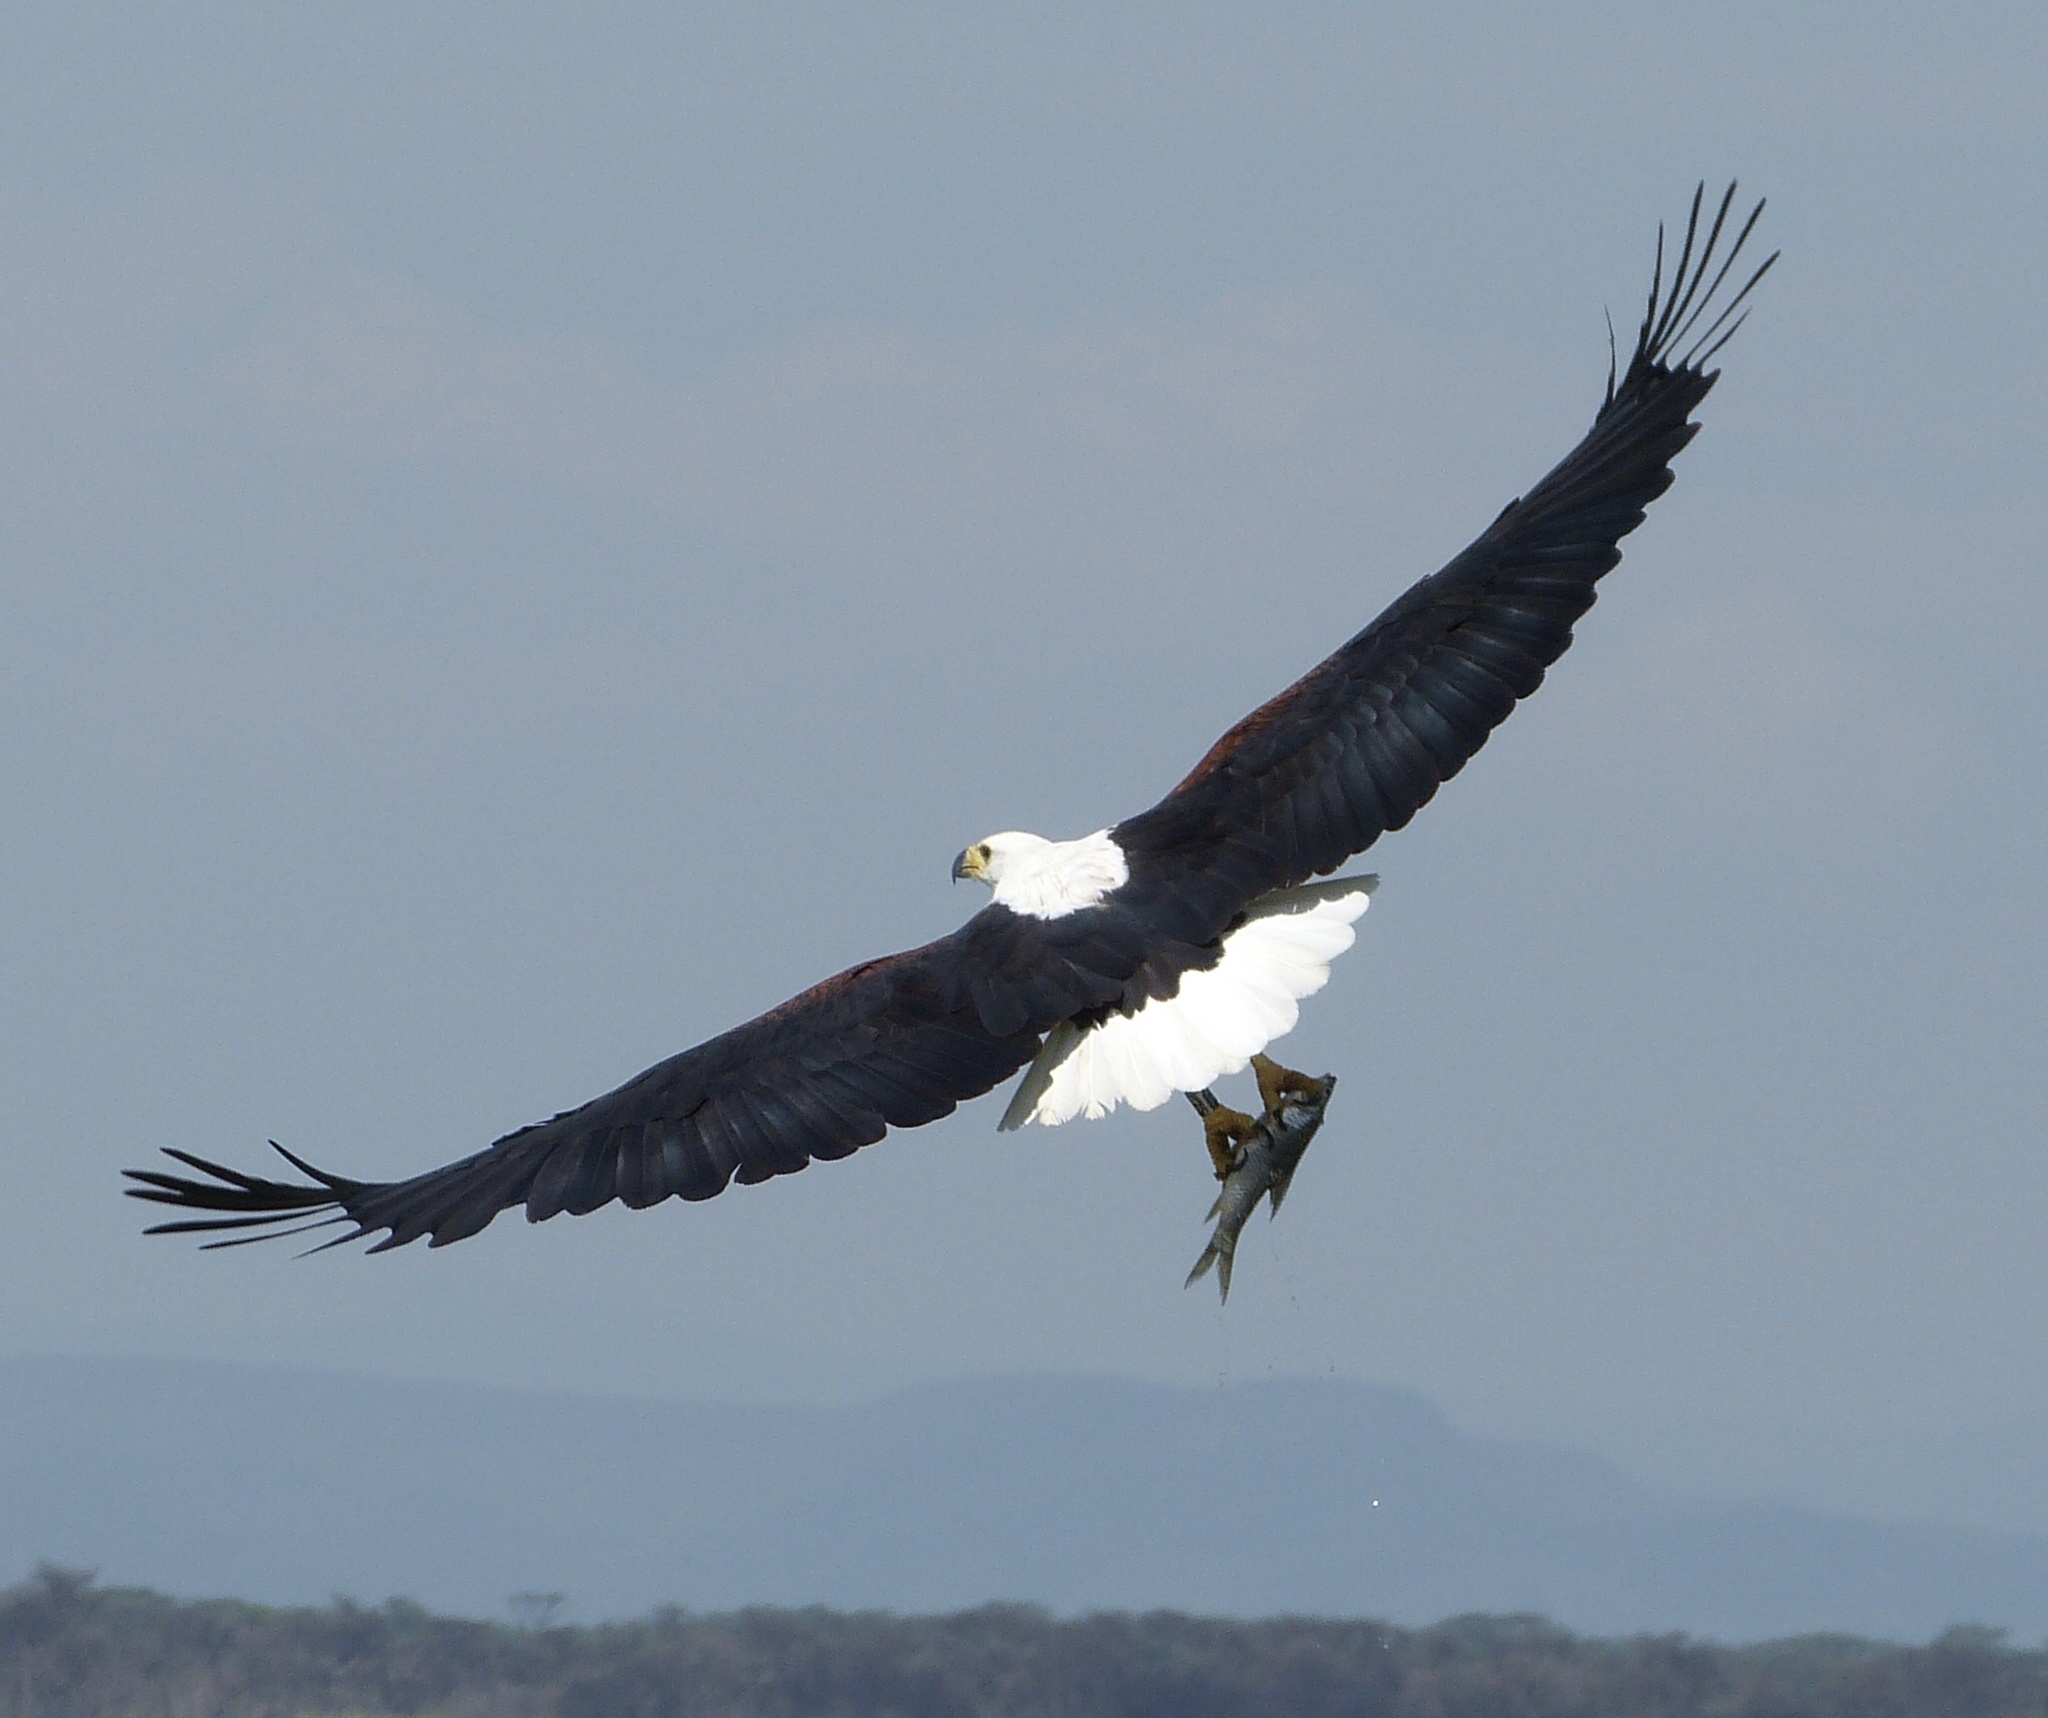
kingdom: Animalia
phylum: Chordata
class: Aves
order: Accipitriformes
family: Accipitridae
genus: Haliaeetus
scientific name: Haliaeetus vocifer
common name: African fish eagle
